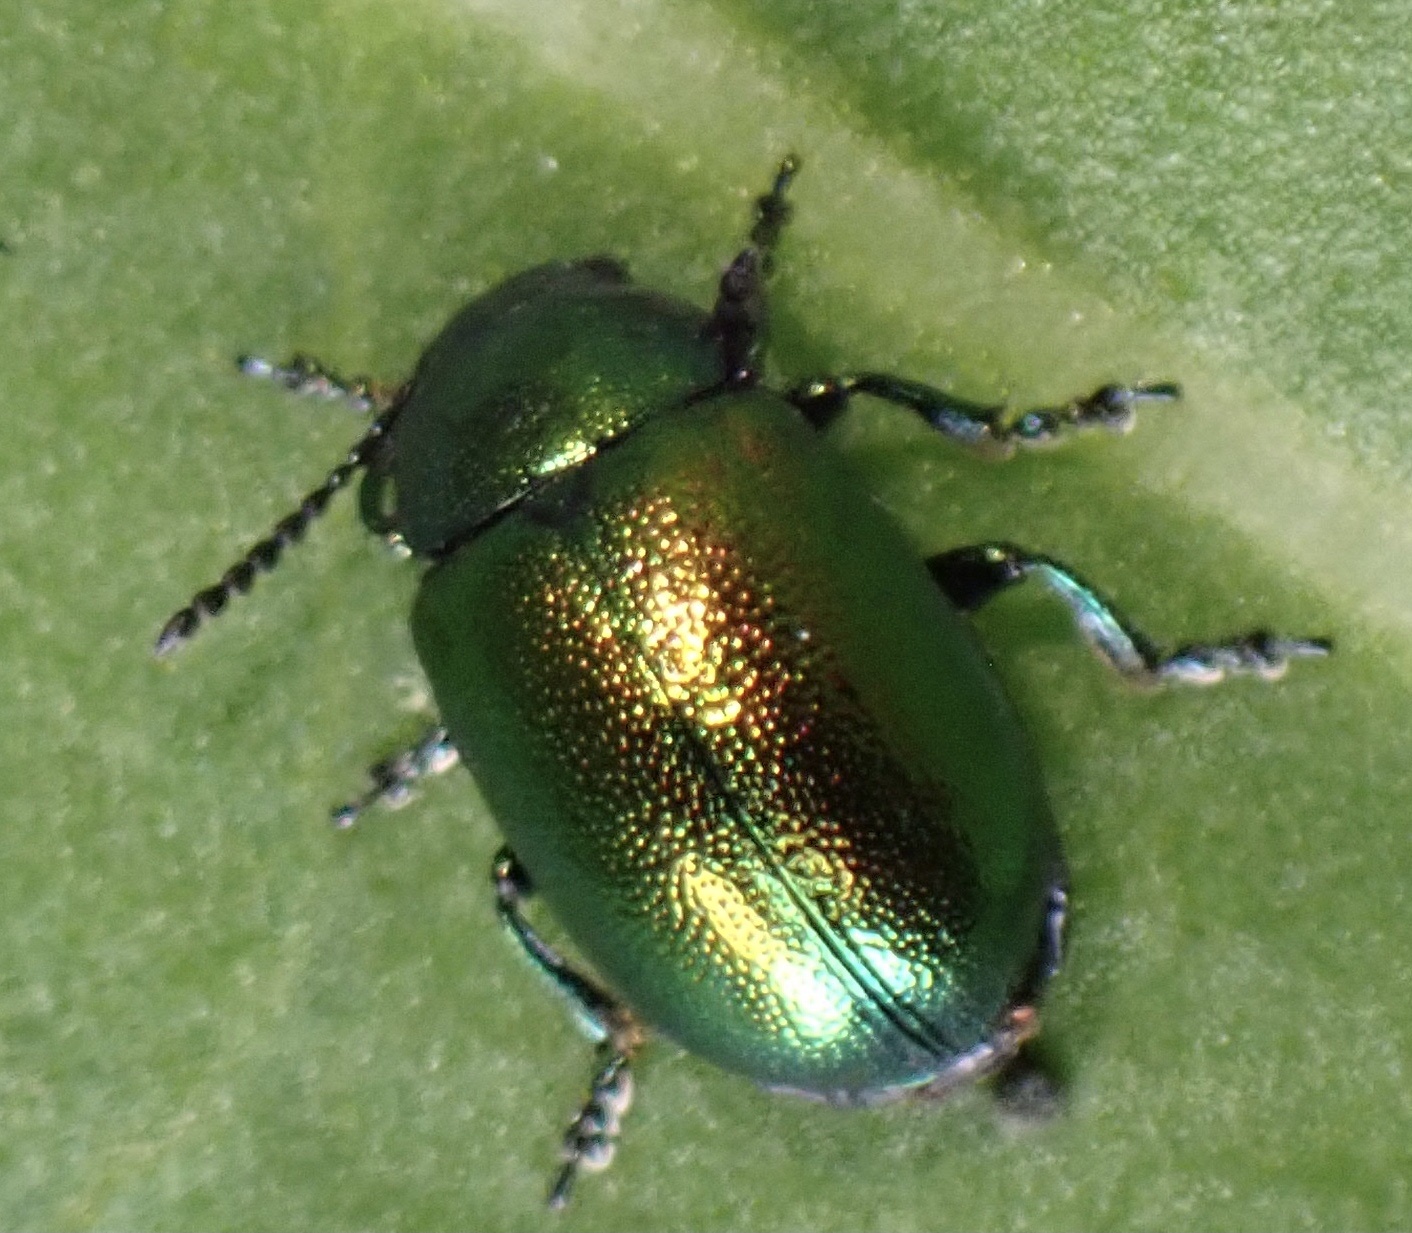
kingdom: Animalia
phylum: Arthropoda
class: Insecta
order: Coleoptera
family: Chrysomelidae
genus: Gastrophysa
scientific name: Gastrophysa viridula
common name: Green dock beetle
